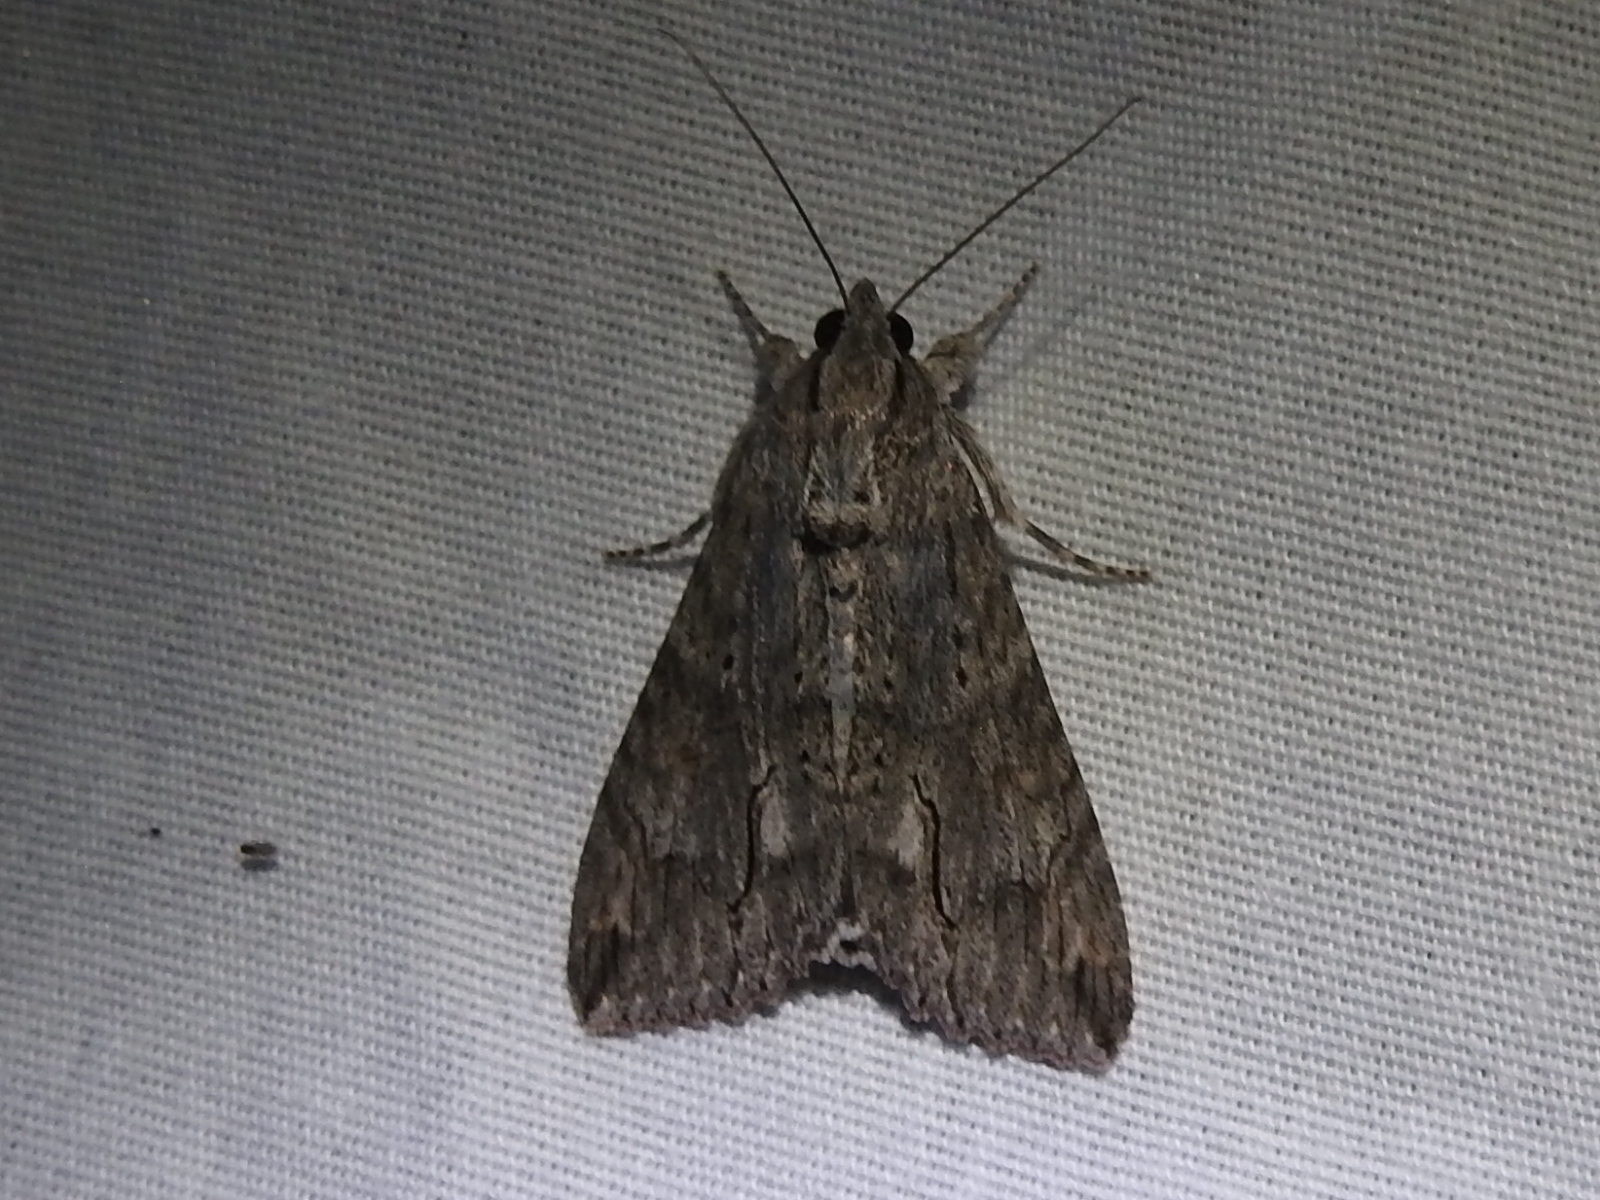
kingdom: Animalia
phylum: Arthropoda
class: Insecta
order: Lepidoptera
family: Erebidae
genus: Melipotis
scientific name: Melipotis acontioides
